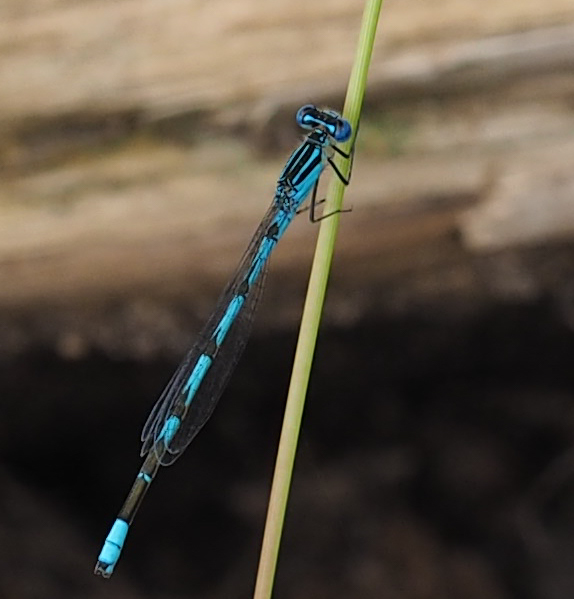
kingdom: Animalia
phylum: Arthropoda
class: Insecta
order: Odonata
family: Coenagrionidae
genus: Enallagma
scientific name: Enallagma durum
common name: Big bluet
